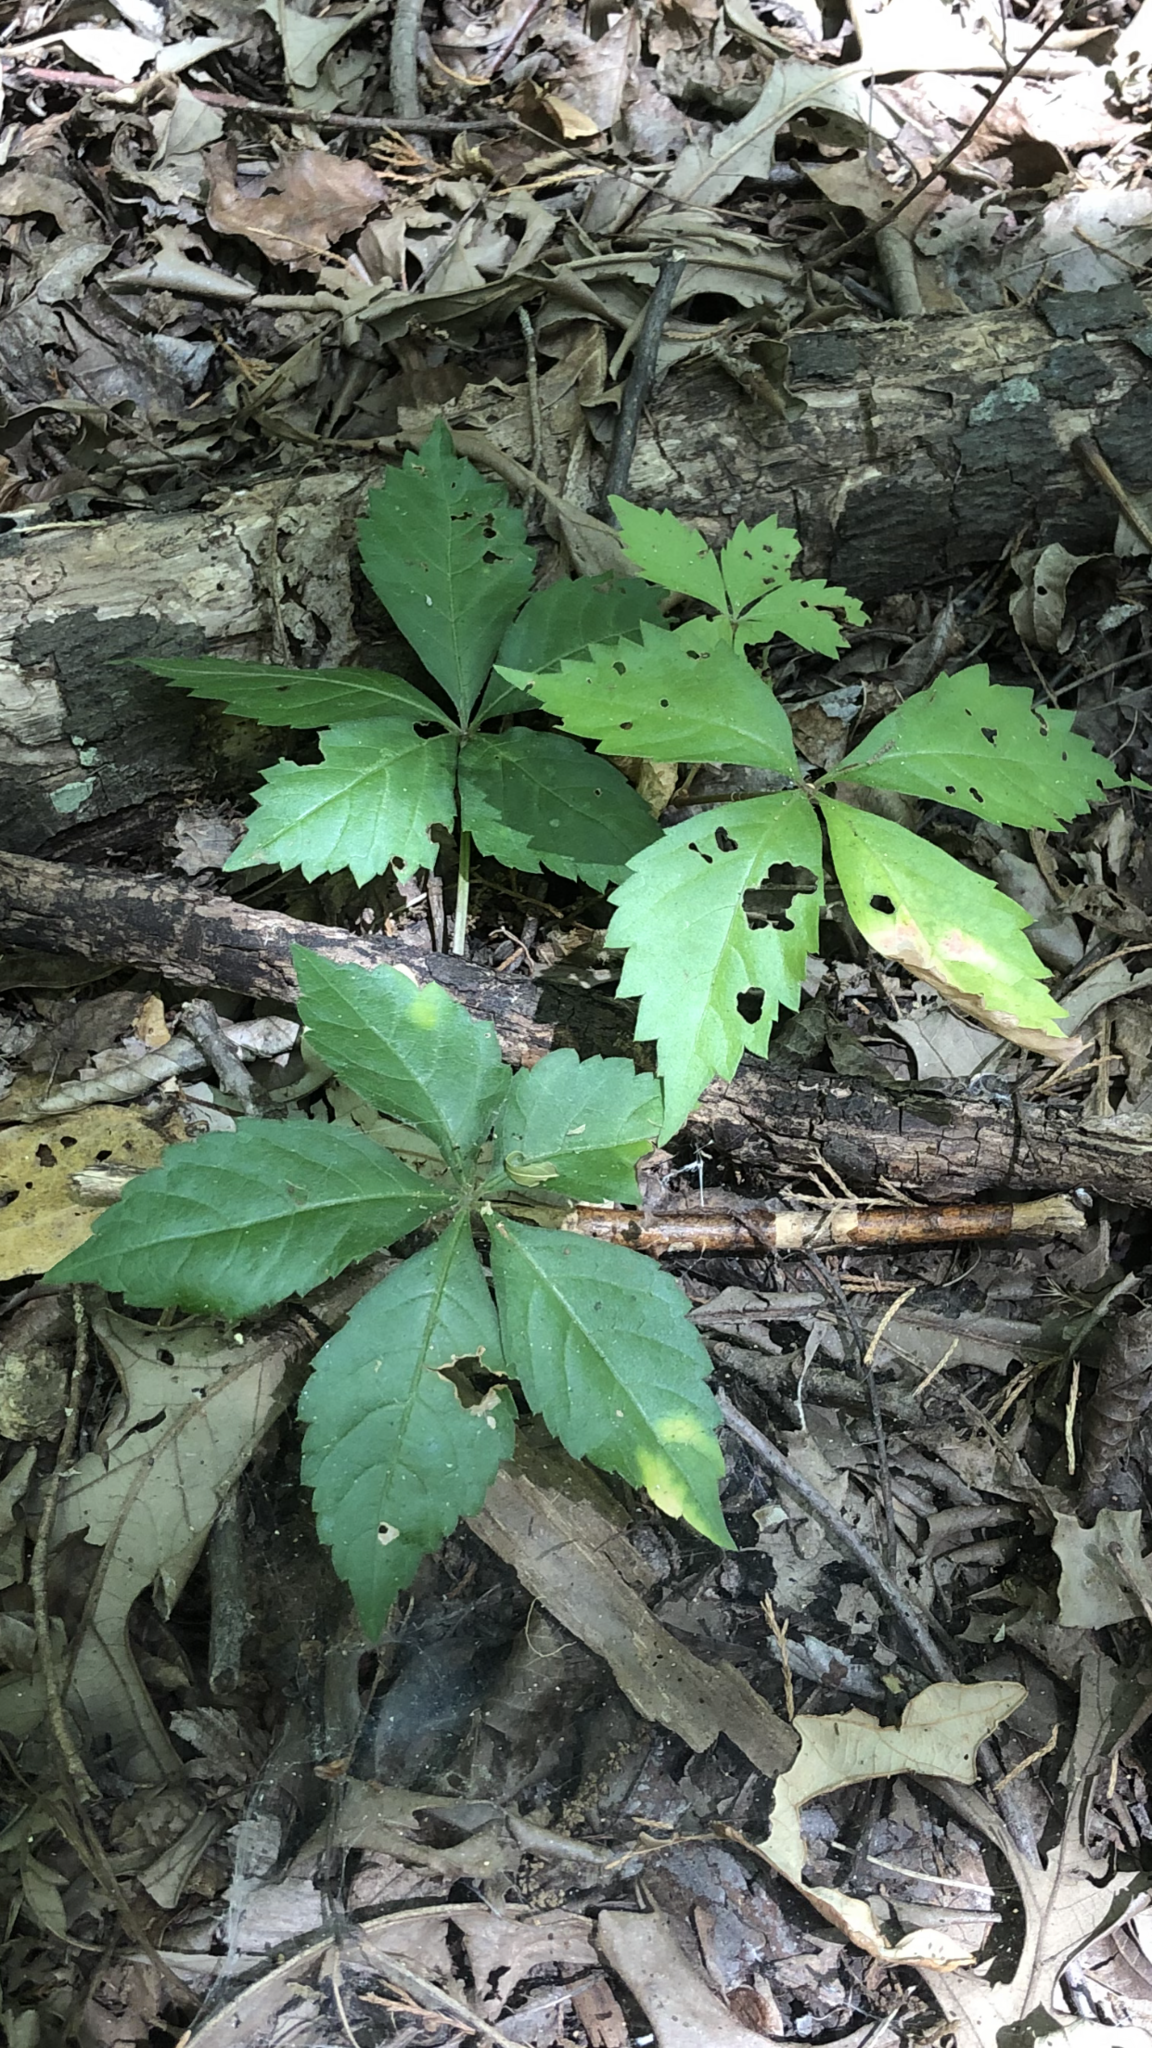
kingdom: Plantae
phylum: Tracheophyta
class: Magnoliopsida
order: Vitales
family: Vitaceae
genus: Parthenocissus
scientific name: Parthenocissus quinquefolia
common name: Virginia-creeper
